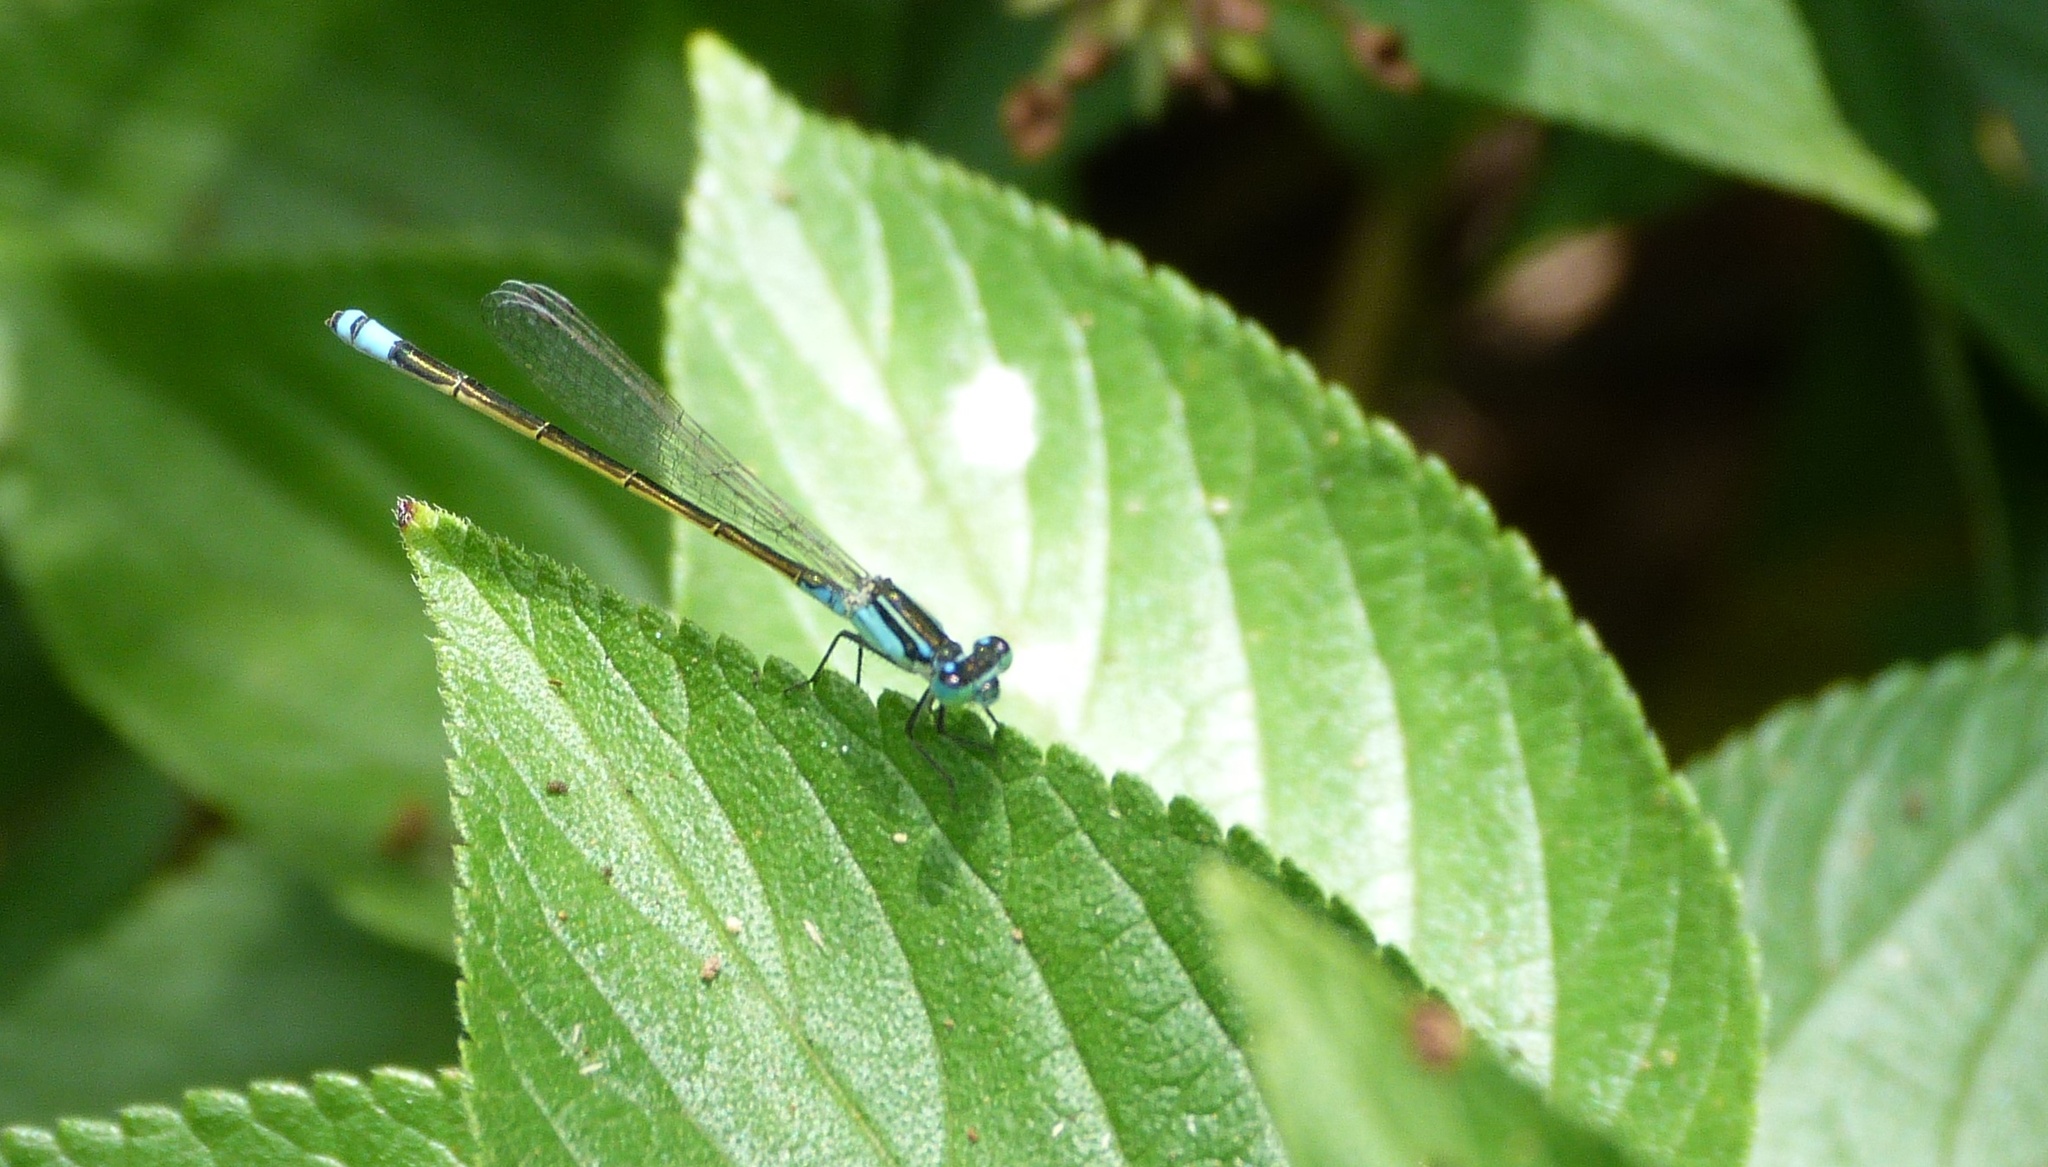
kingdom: Animalia
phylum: Arthropoda
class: Insecta
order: Odonata
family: Coenagrionidae
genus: Ischnura
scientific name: Ischnura heterosticta
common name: Common bluetail
